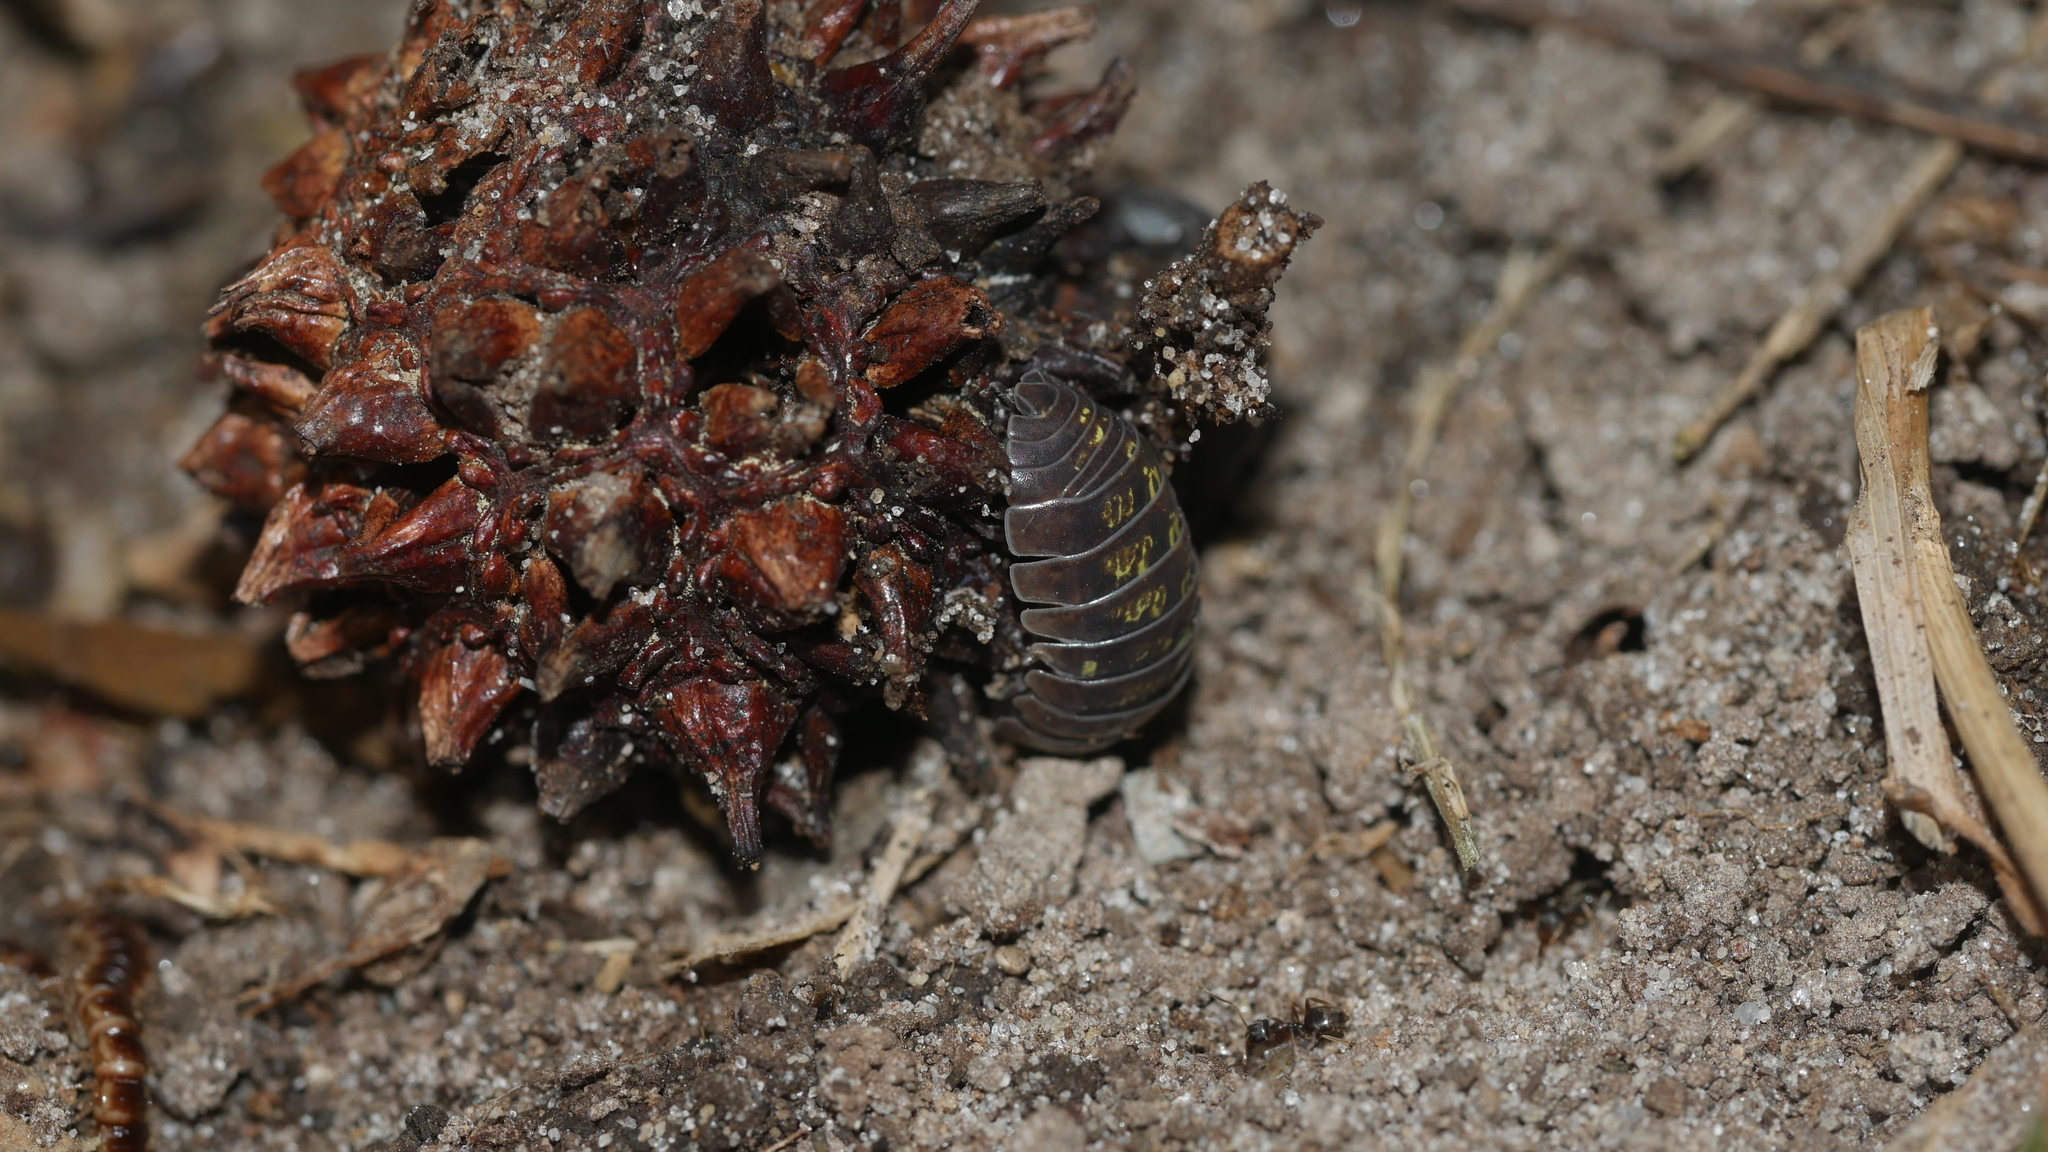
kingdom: Animalia
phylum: Arthropoda
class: Malacostraca
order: Isopoda
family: Armadillidiidae
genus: Armadillidium
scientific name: Armadillidium vulgare
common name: Common pill woodlouse
